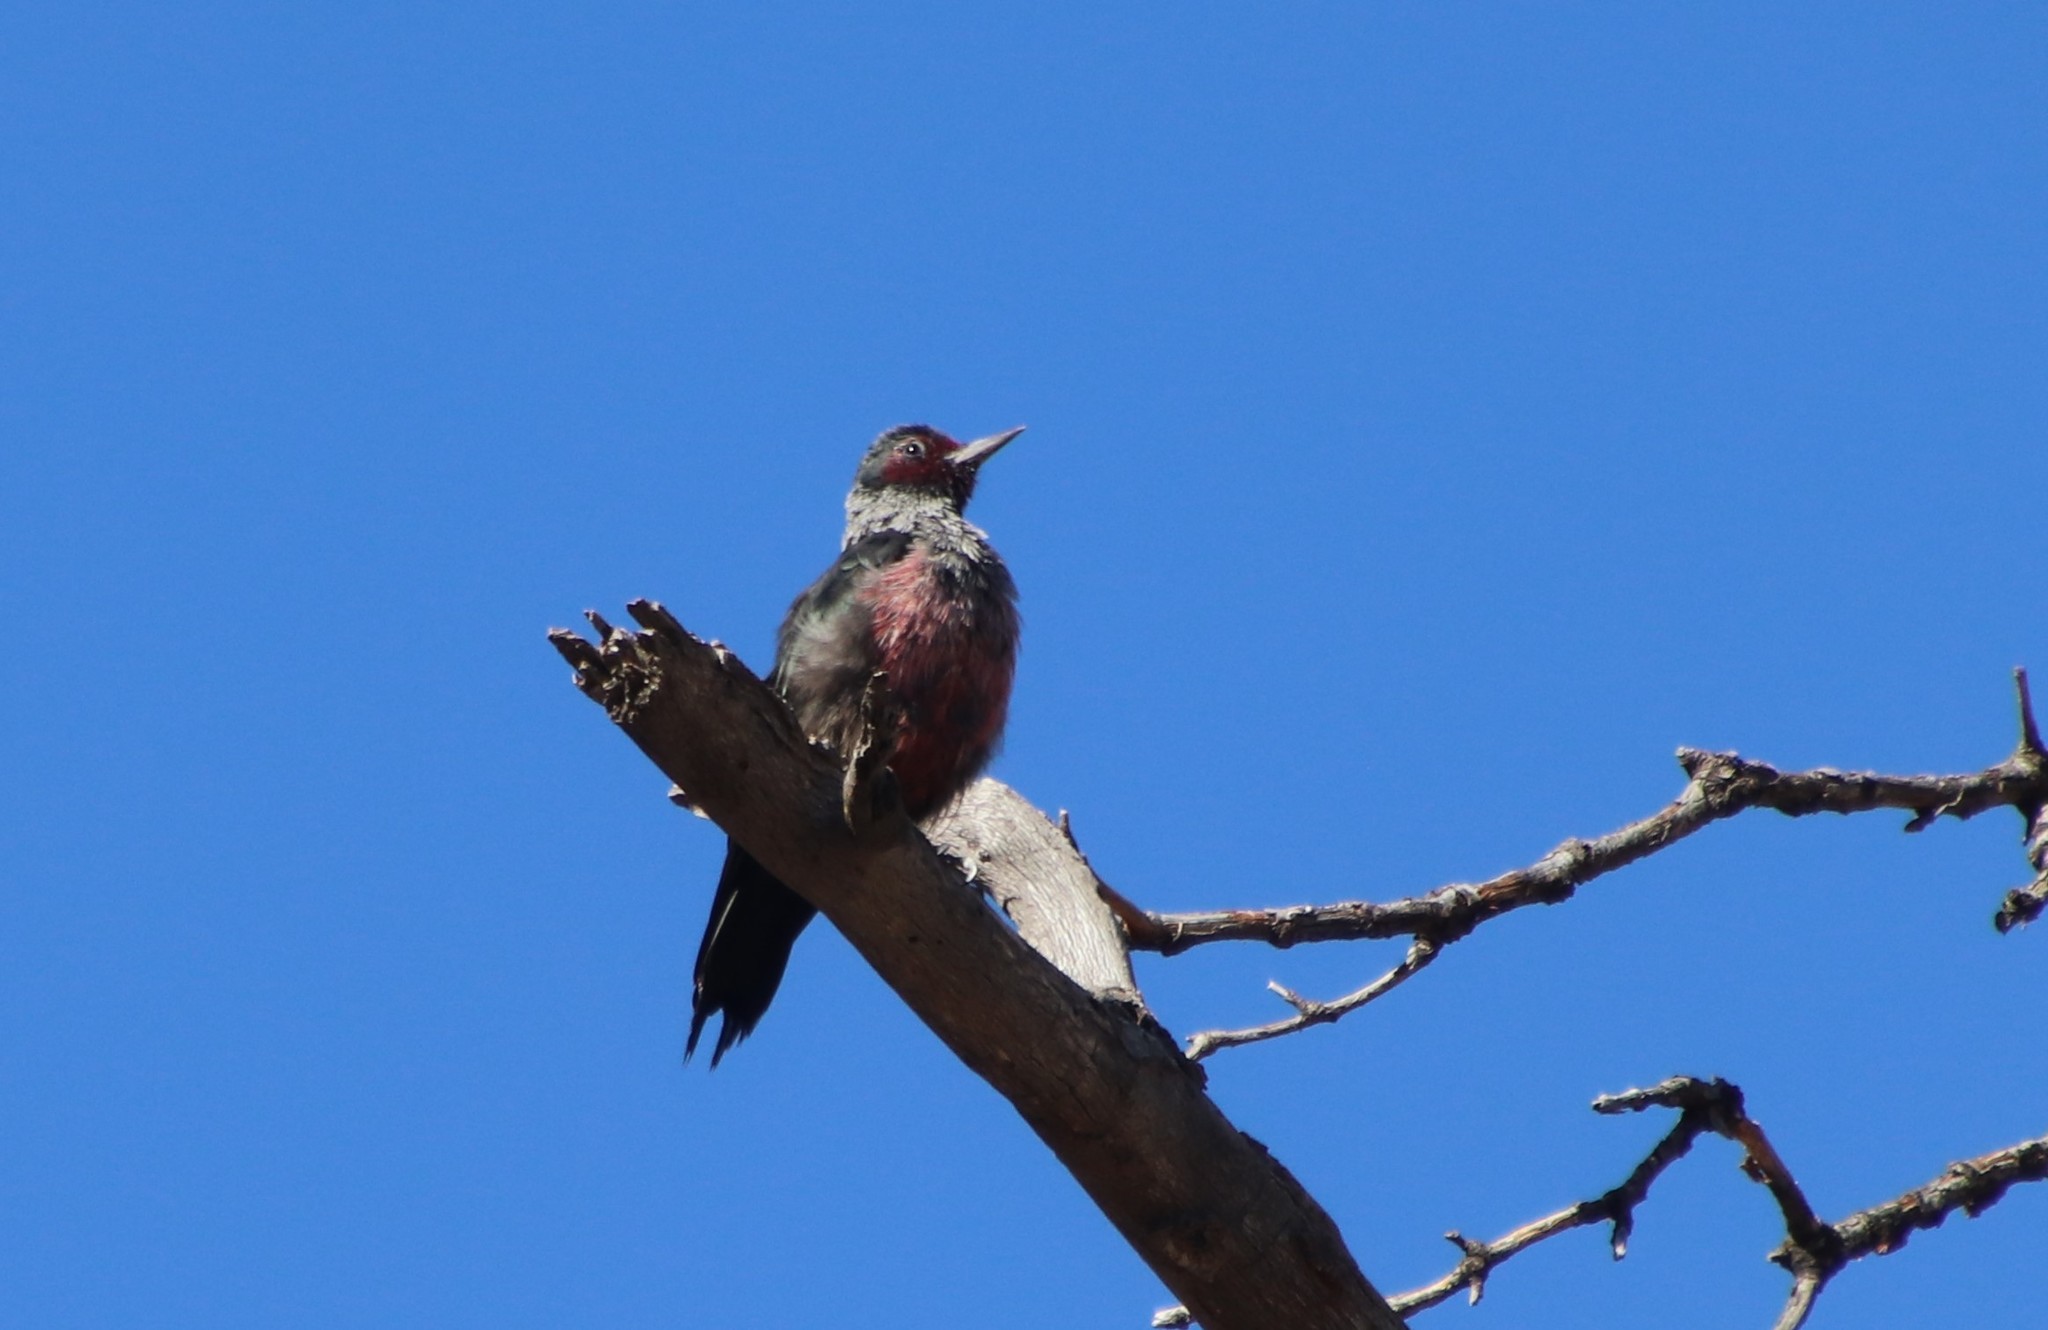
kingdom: Animalia
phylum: Chordata
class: Aves
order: Piciformes
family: Picidae
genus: Melanerpes
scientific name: Melanerpes lewis
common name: Lewis's woodpecker
